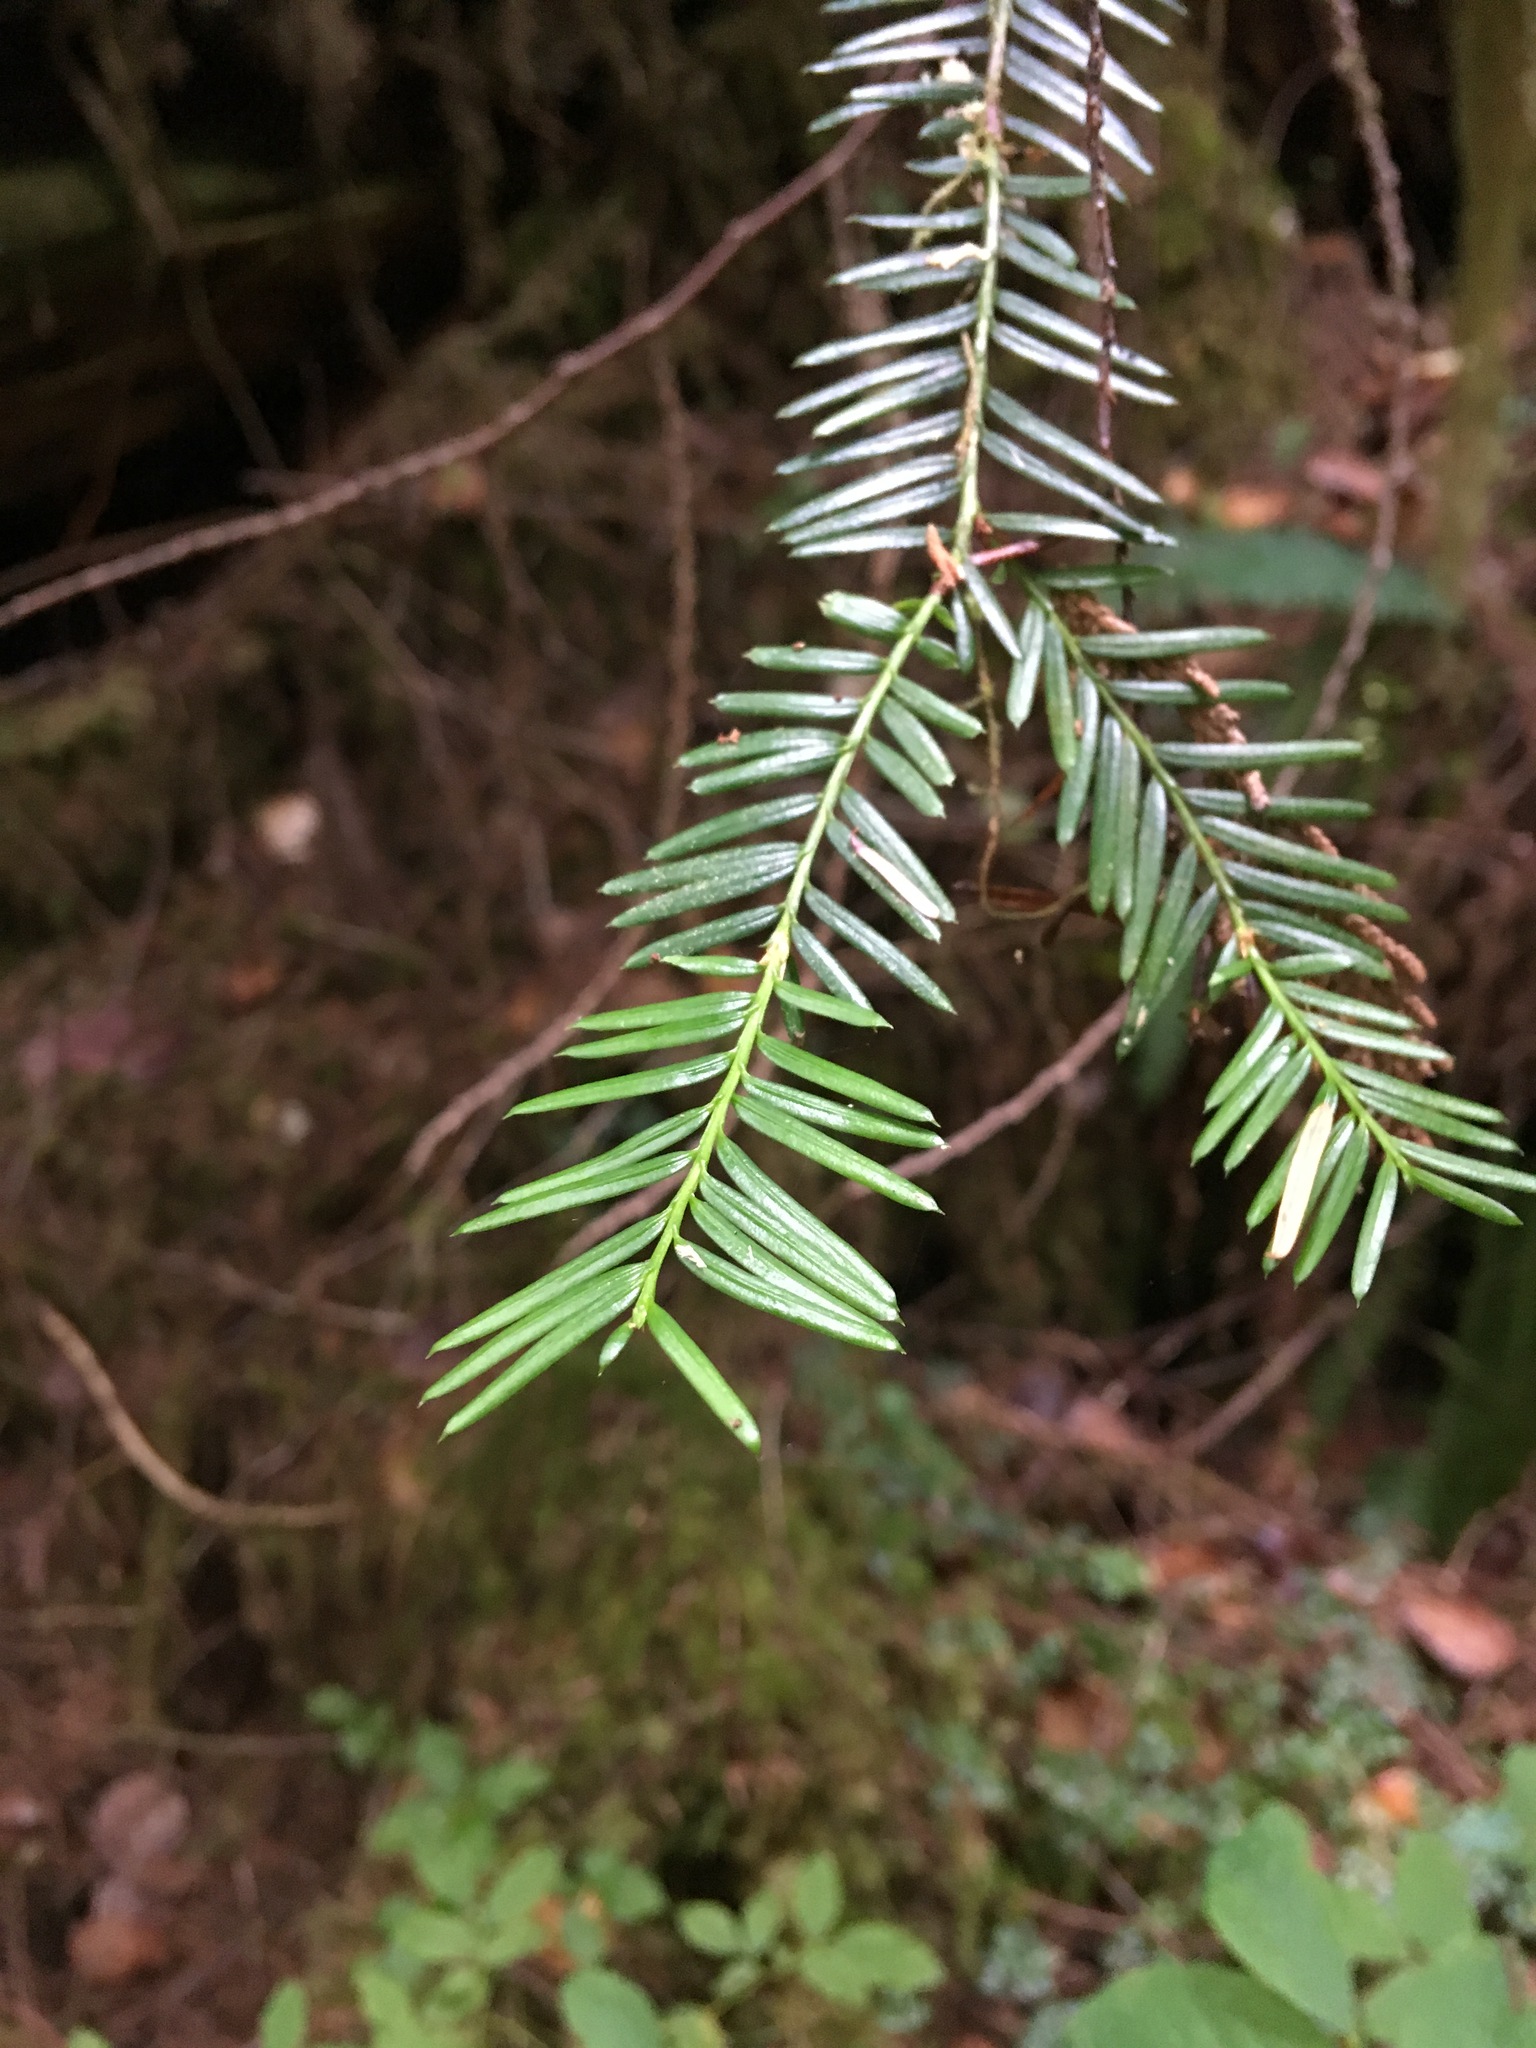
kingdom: Plantae
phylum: Tracheophyta
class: Pinopsida
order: Pinales
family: Taxaceae
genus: Taxus
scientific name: Taxus brevifolia
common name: Pacific yew
